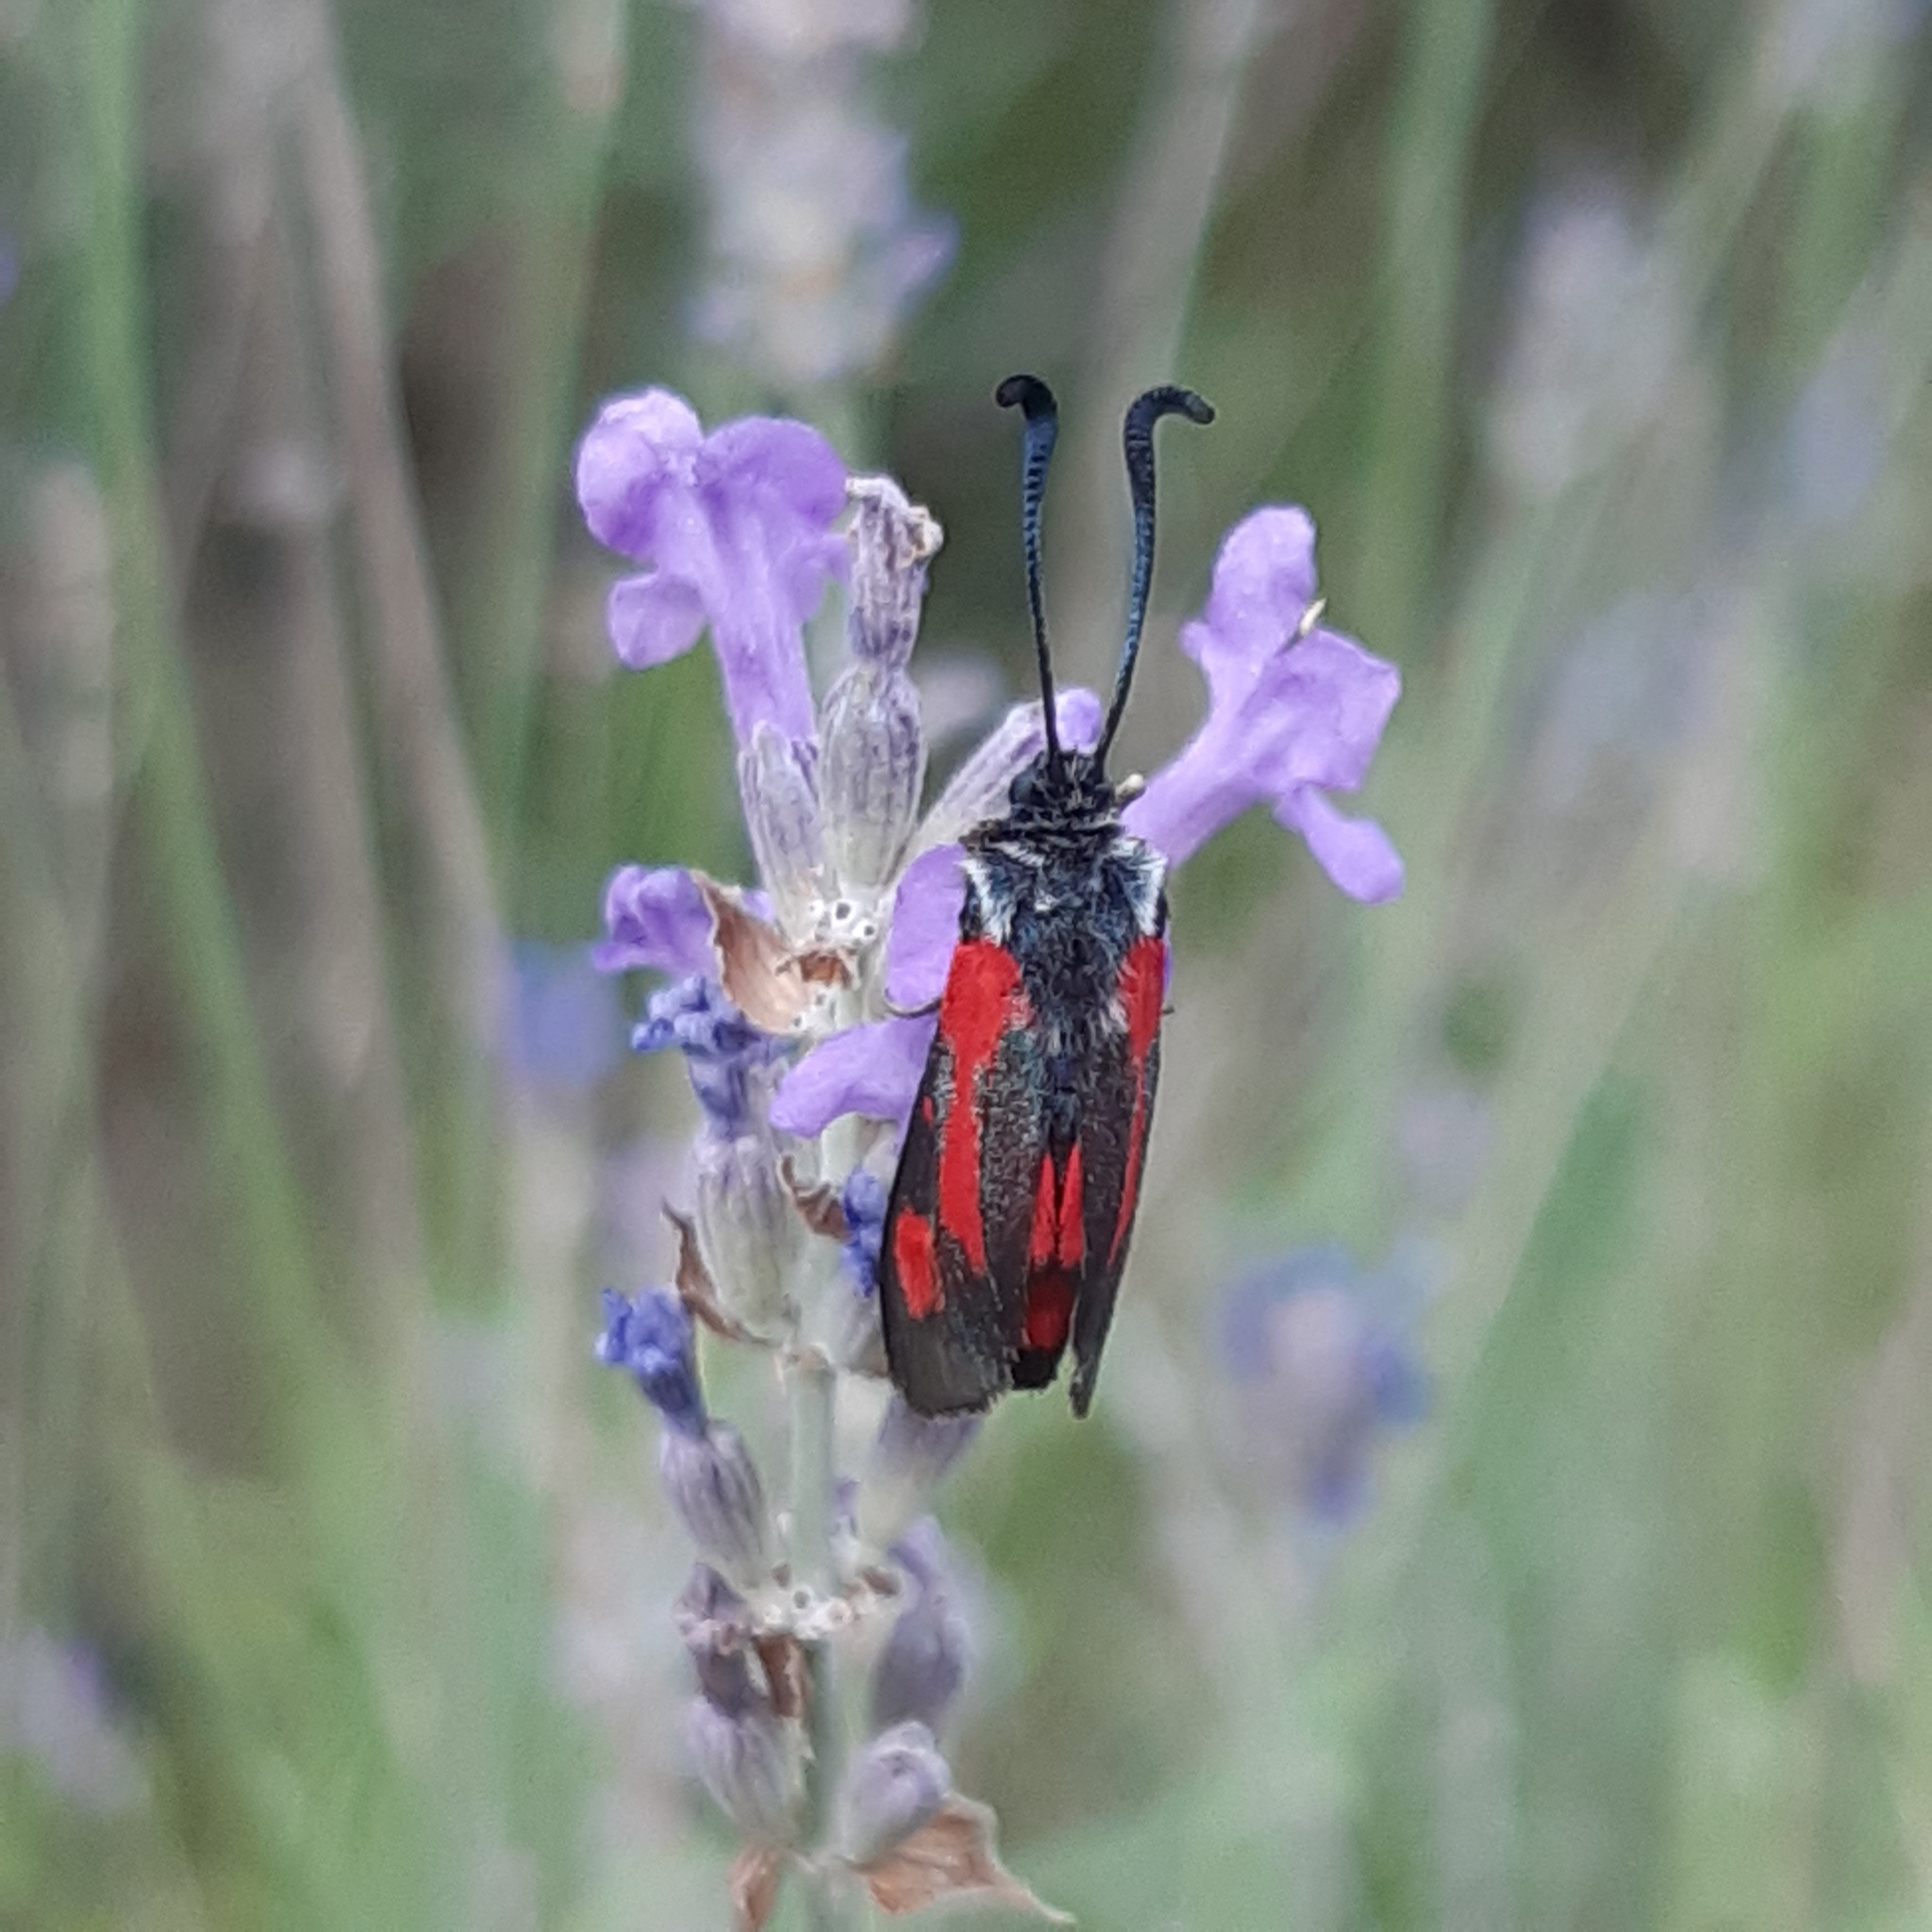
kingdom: Animalia
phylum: Arthropoda
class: Insecta
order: Lepidoptera
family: Zygaenidae
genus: Zygaena
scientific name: Zygaena sarpedon
